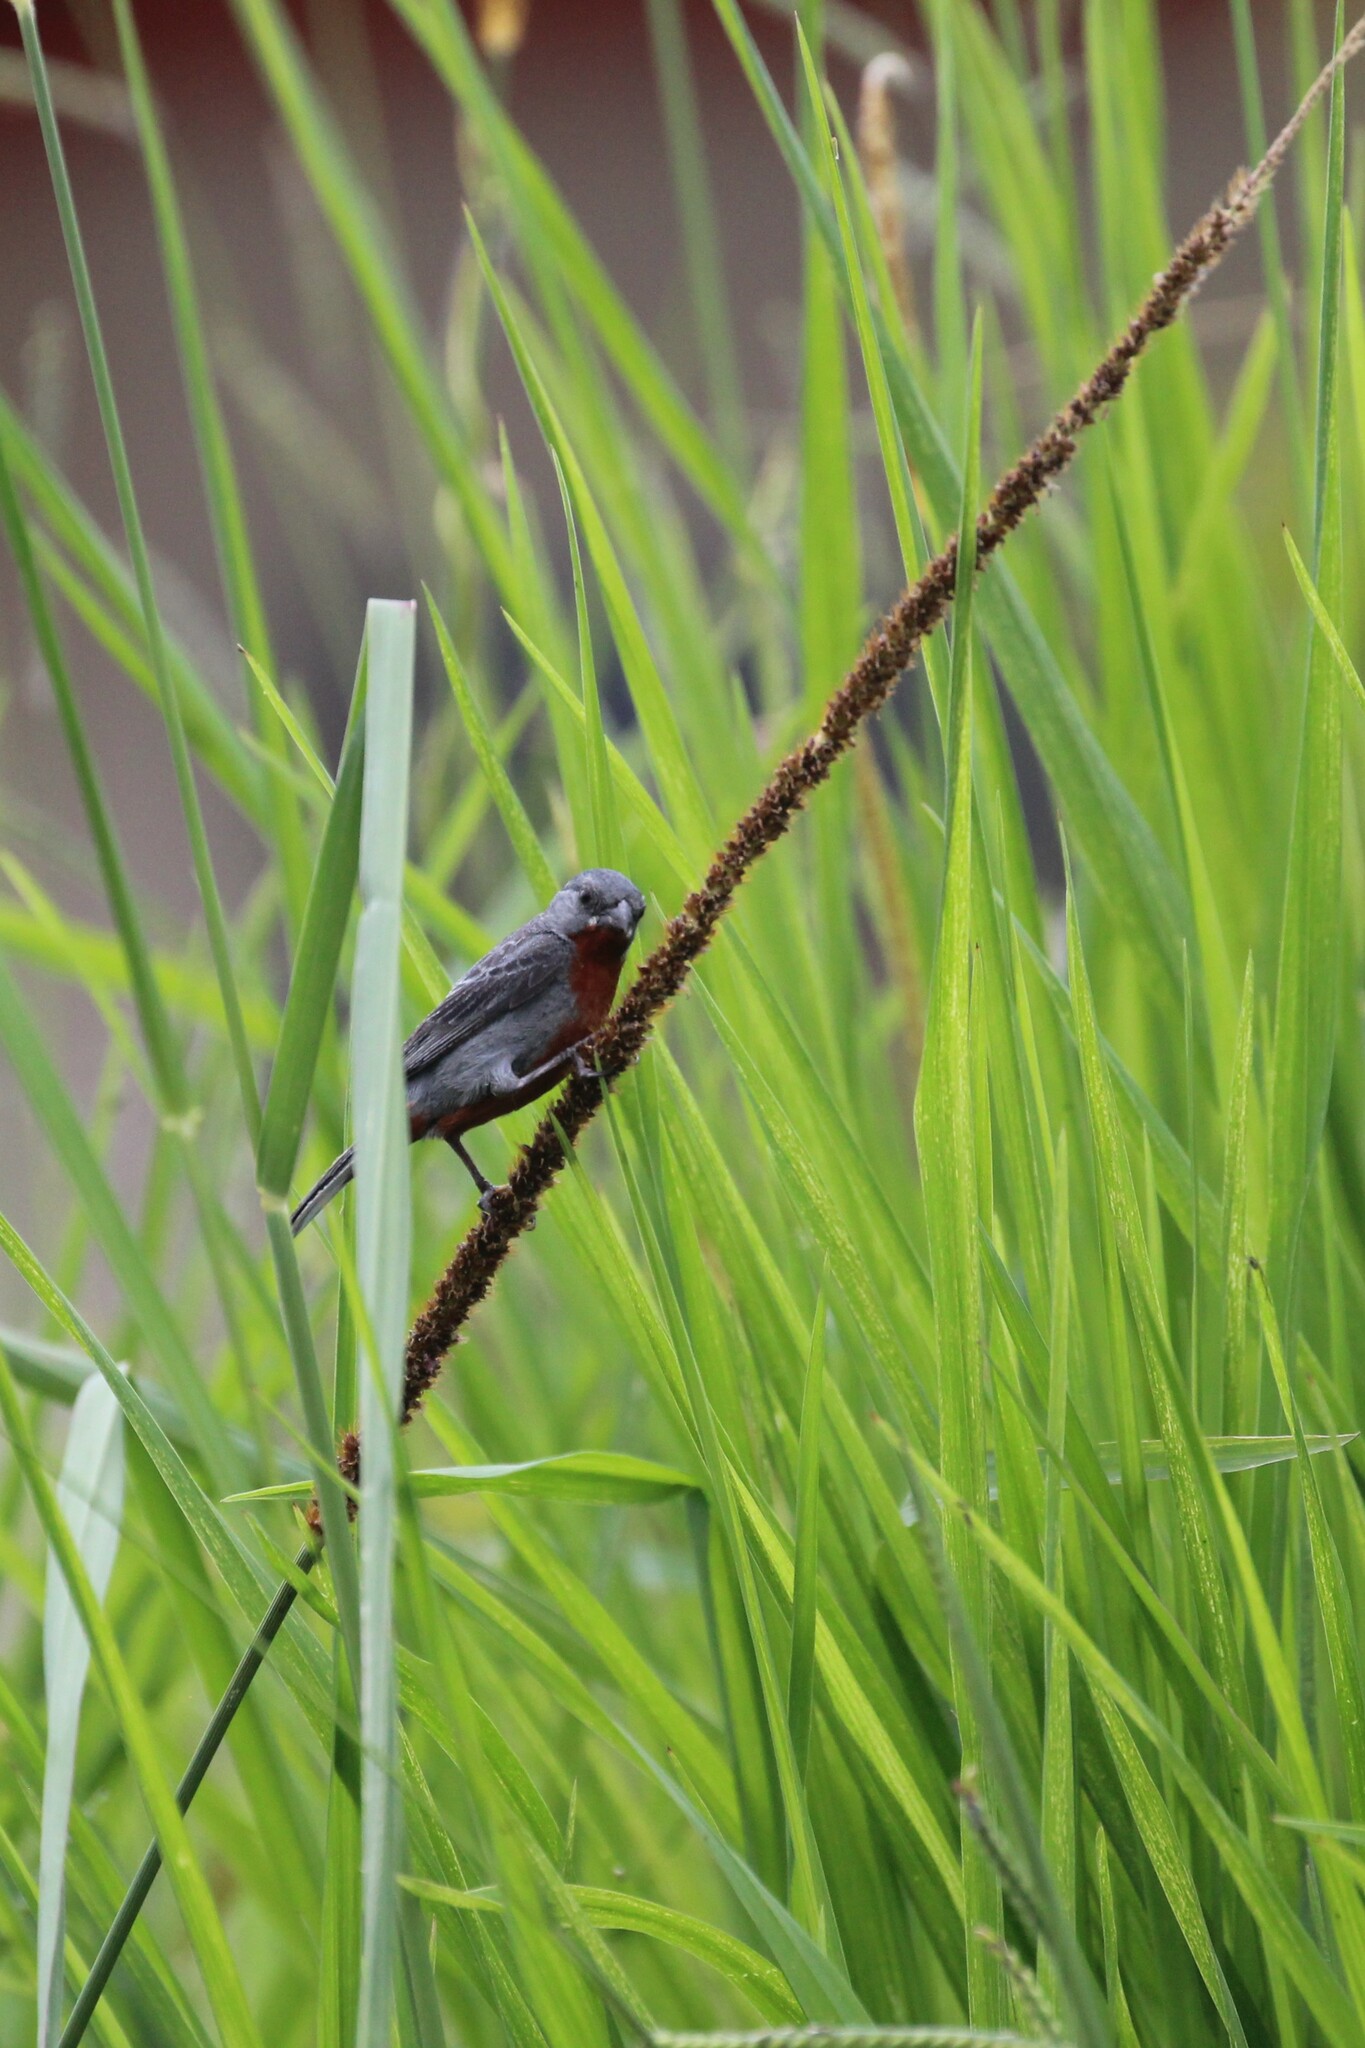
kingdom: Animalia
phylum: Chordata
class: Aves
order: Passeriformes
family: Thraupidae
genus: Sporophila
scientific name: Sporophila castaneiventris
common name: Chestnut-bellied seedeater
